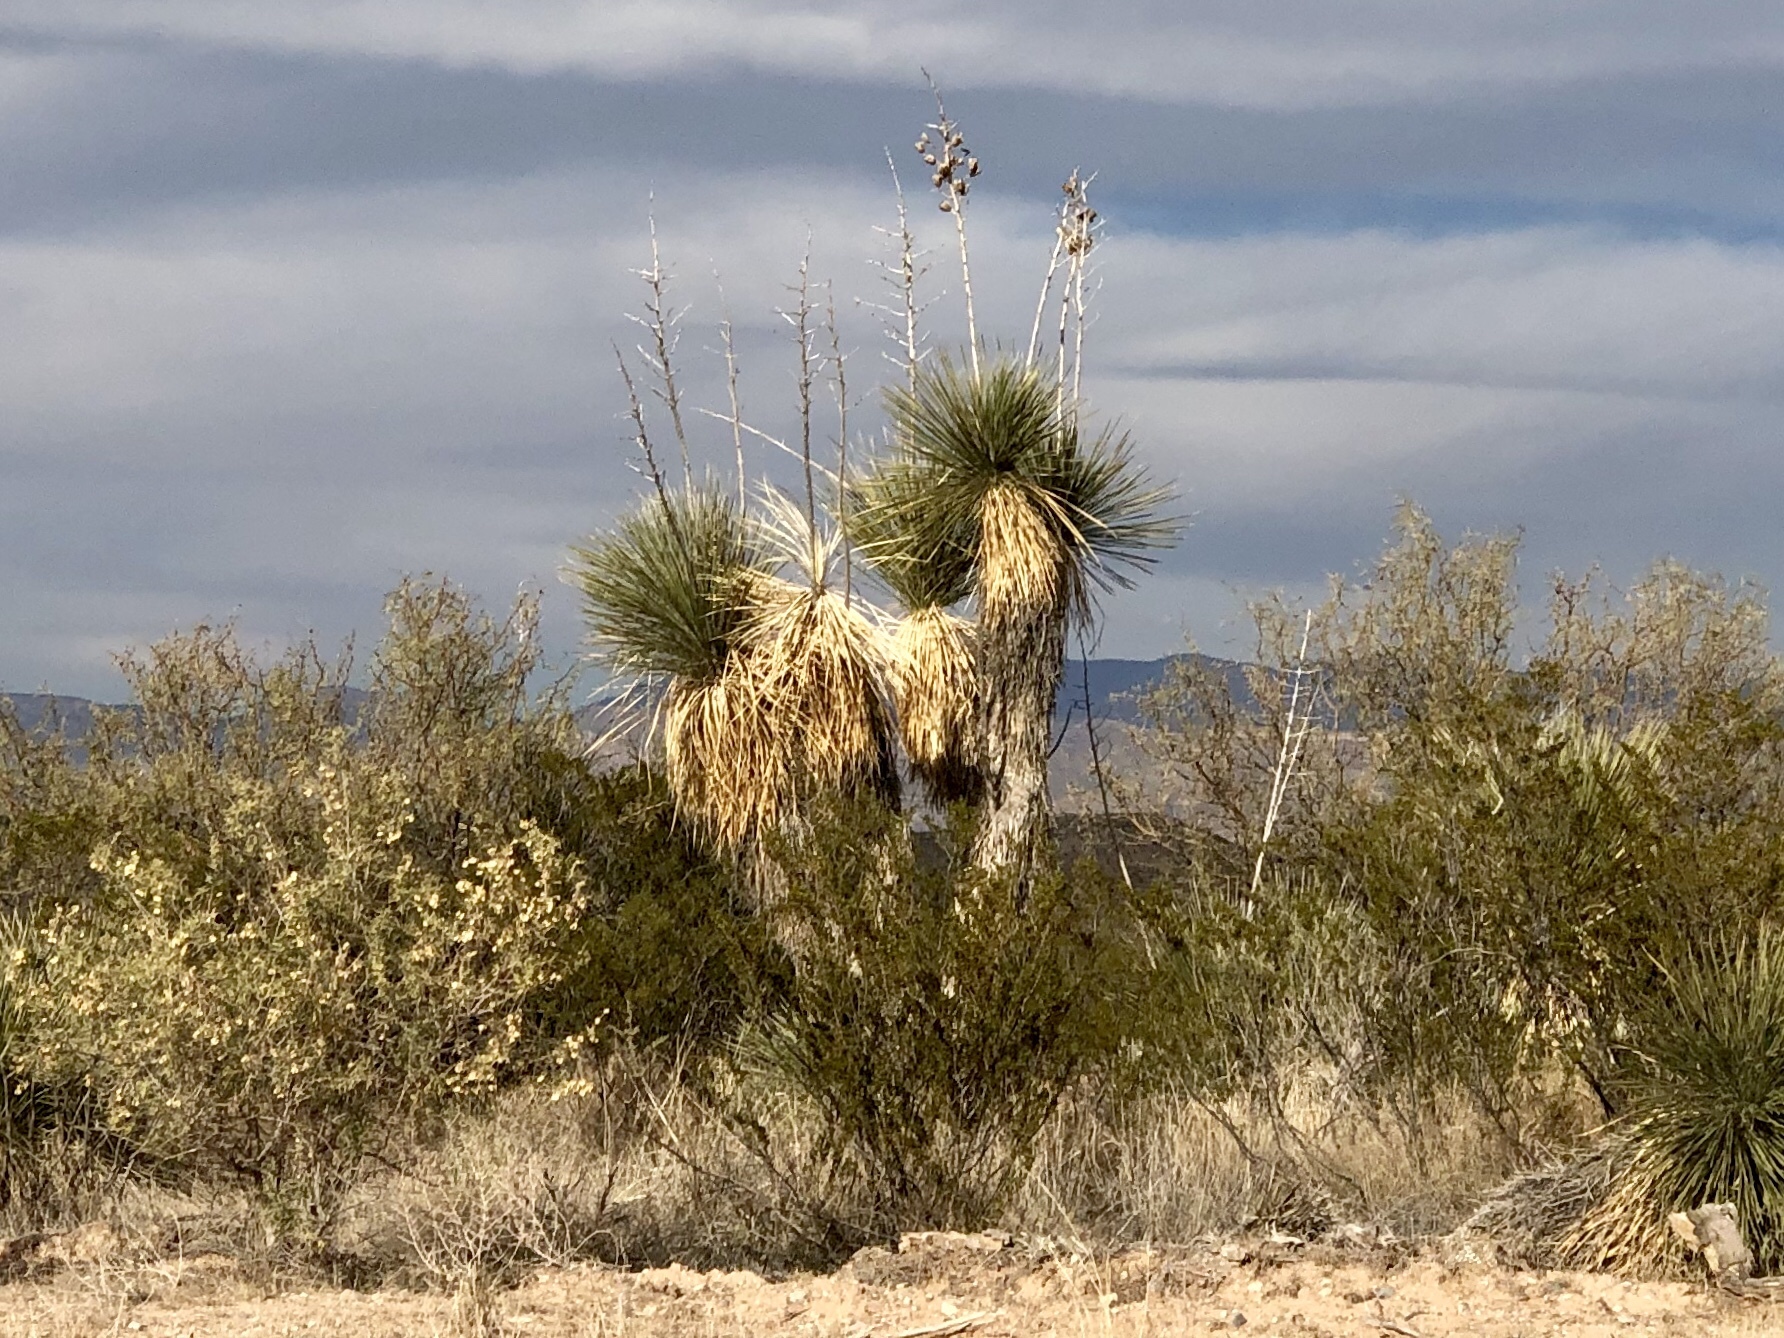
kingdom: Plantae
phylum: Tracheophyta
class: Liliopsida
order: Asparagales
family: Asparagaceae
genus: Yucca
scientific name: Yucca elata
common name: Palmella
